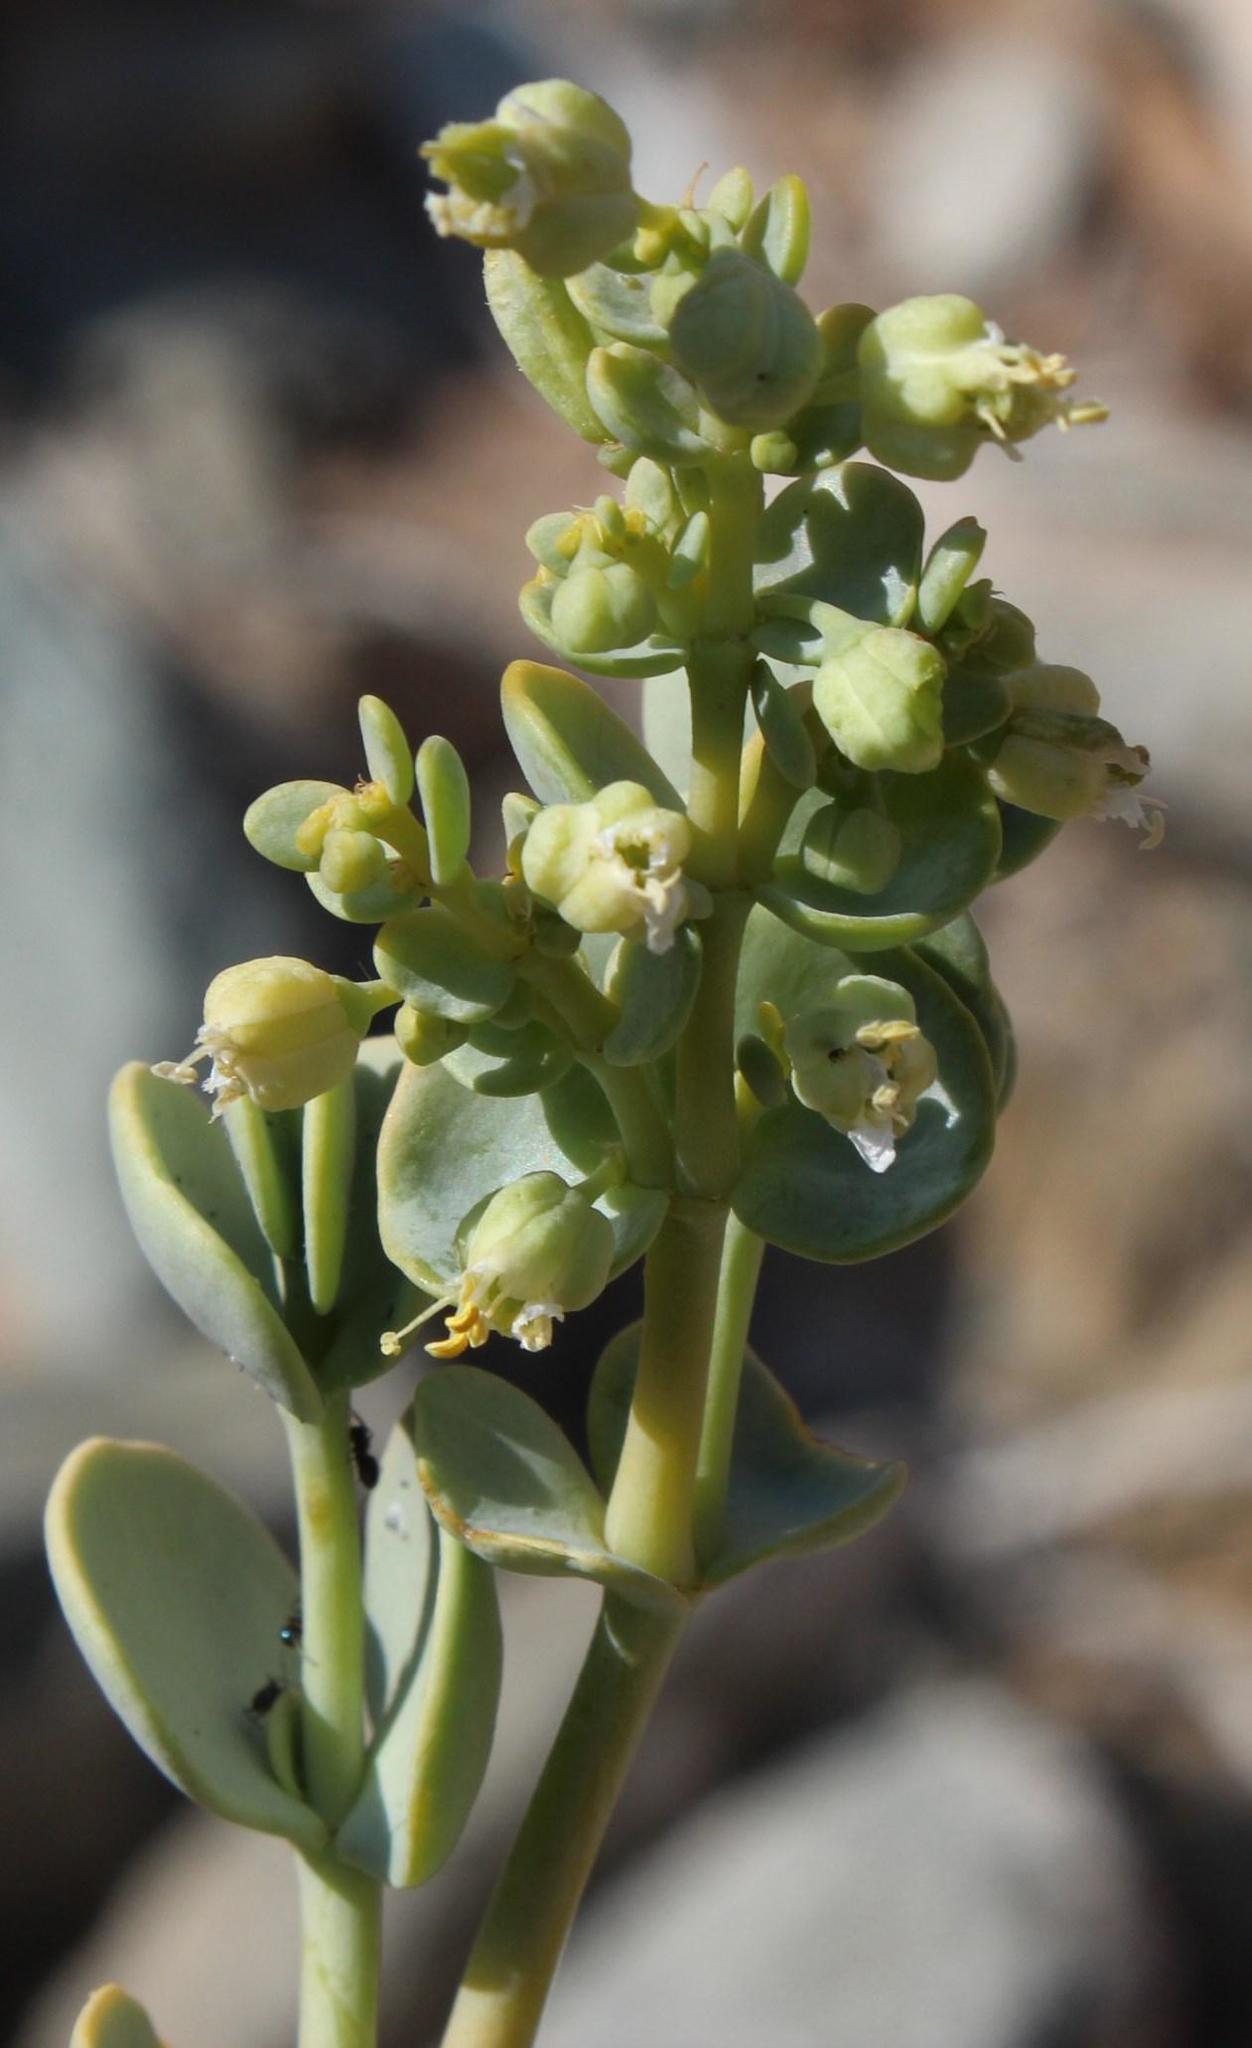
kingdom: Plantae
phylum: Tracheophyta
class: Magnoliopsida
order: Zygophyllales
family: Zygophyllaceae
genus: Tetraena
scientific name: Tetraena prismatocarpa
